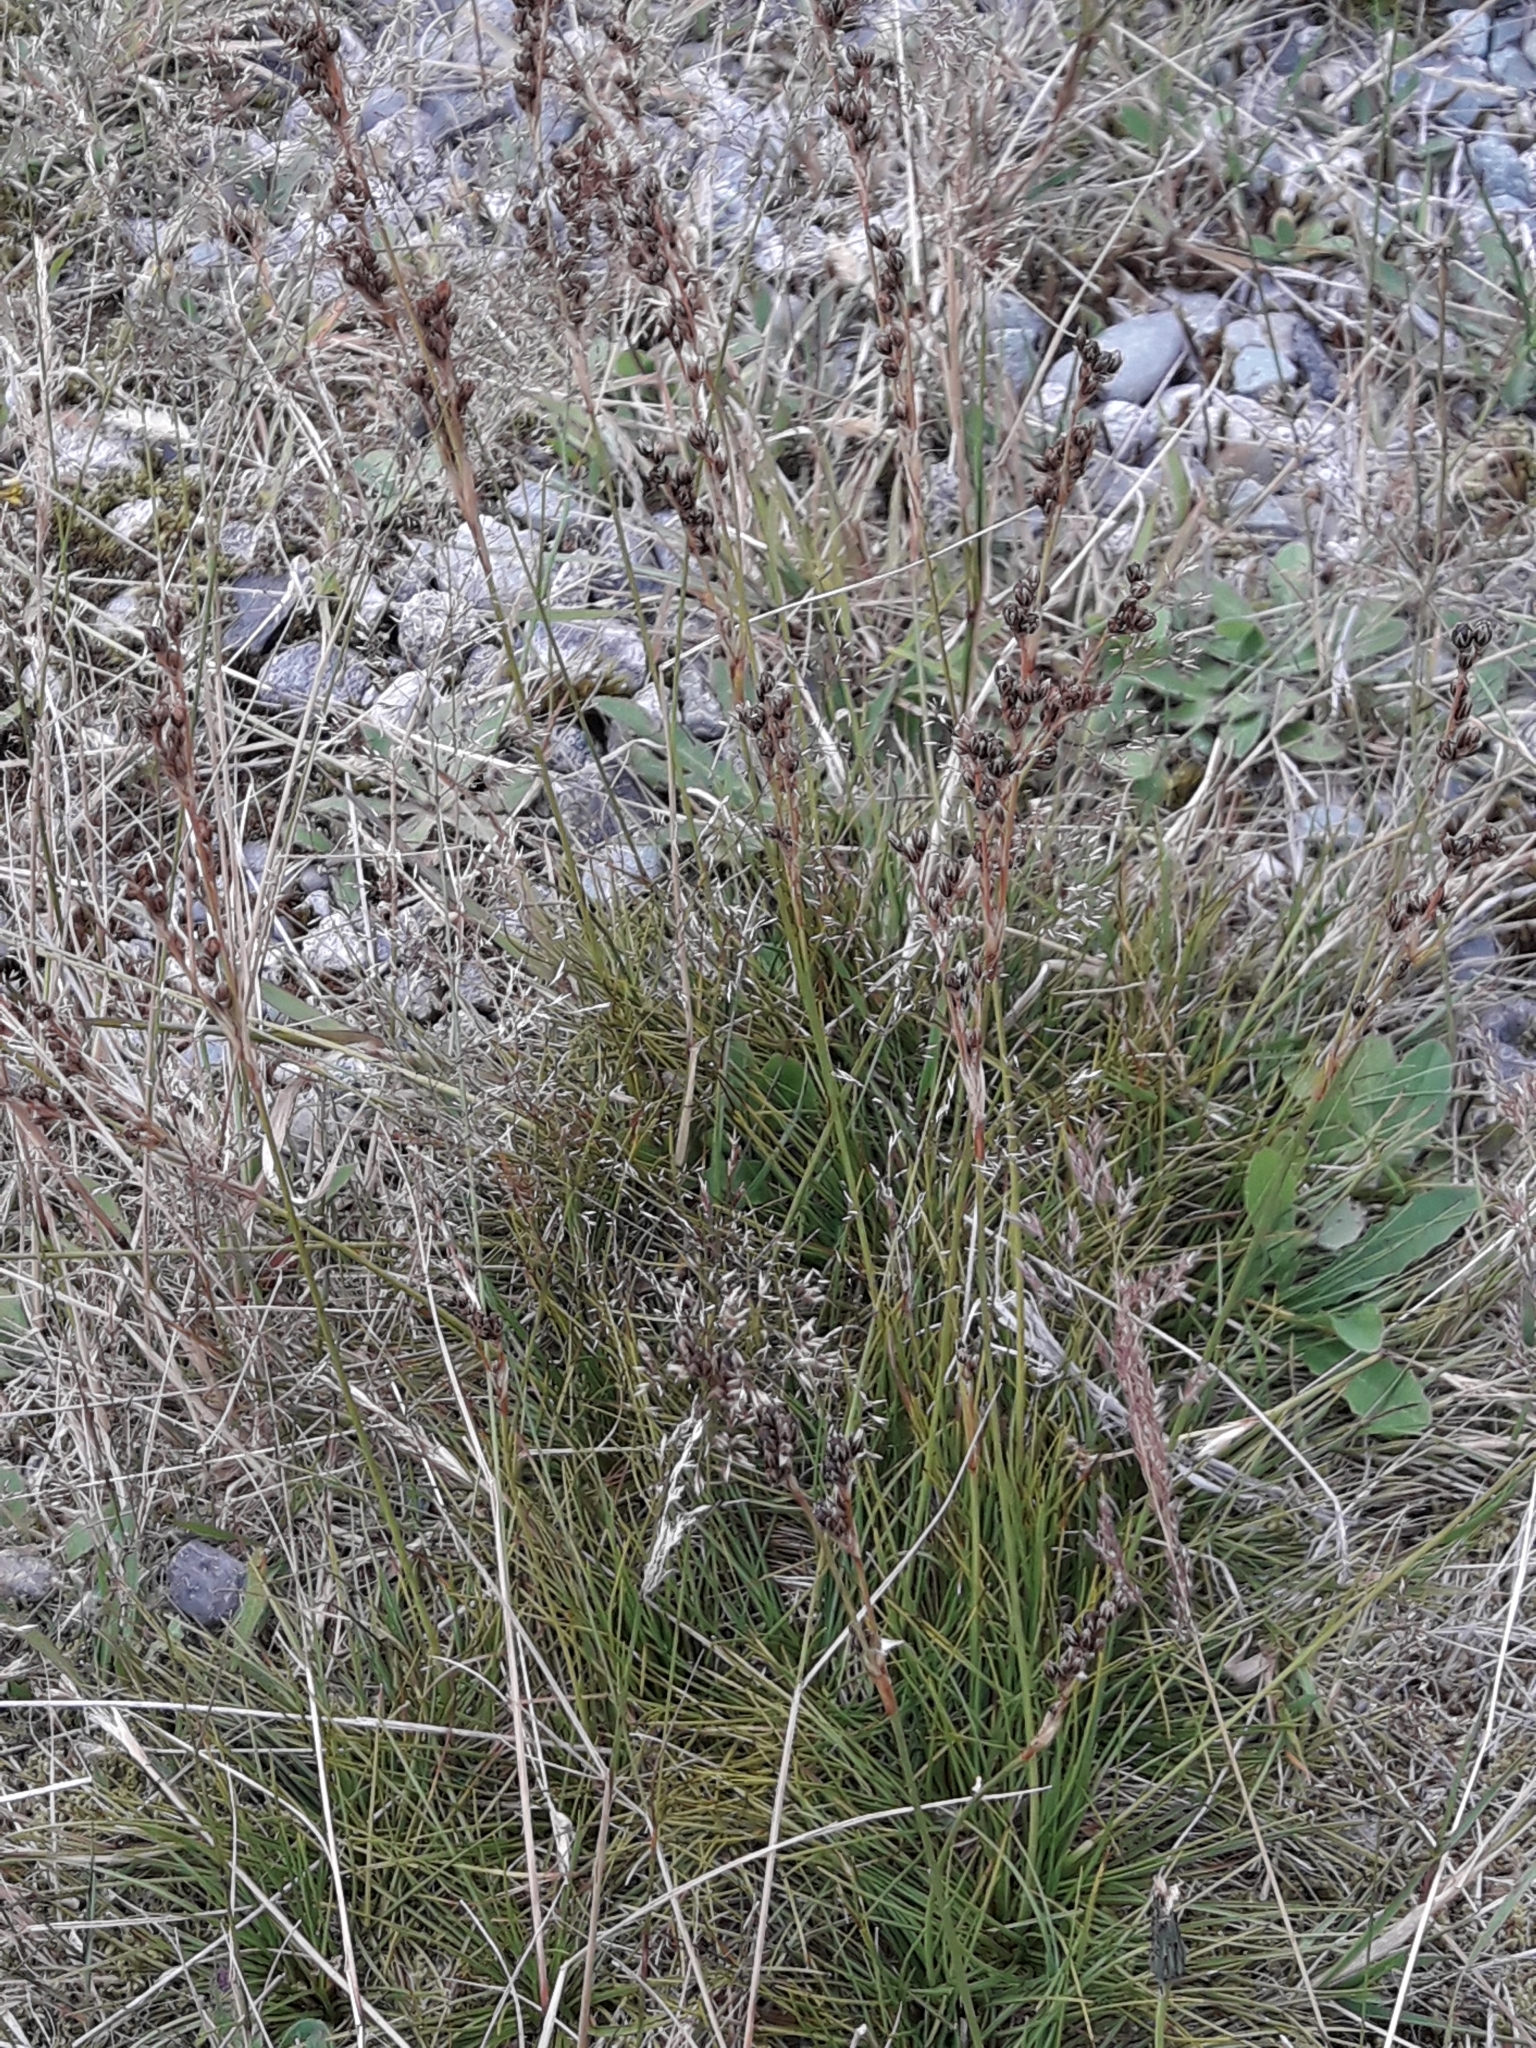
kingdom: Plantae
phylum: Tracheophyta
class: Liliopsida
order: Poales
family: Juncaceae
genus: Juncus
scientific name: Juncus squarrosus
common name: Heath rush
